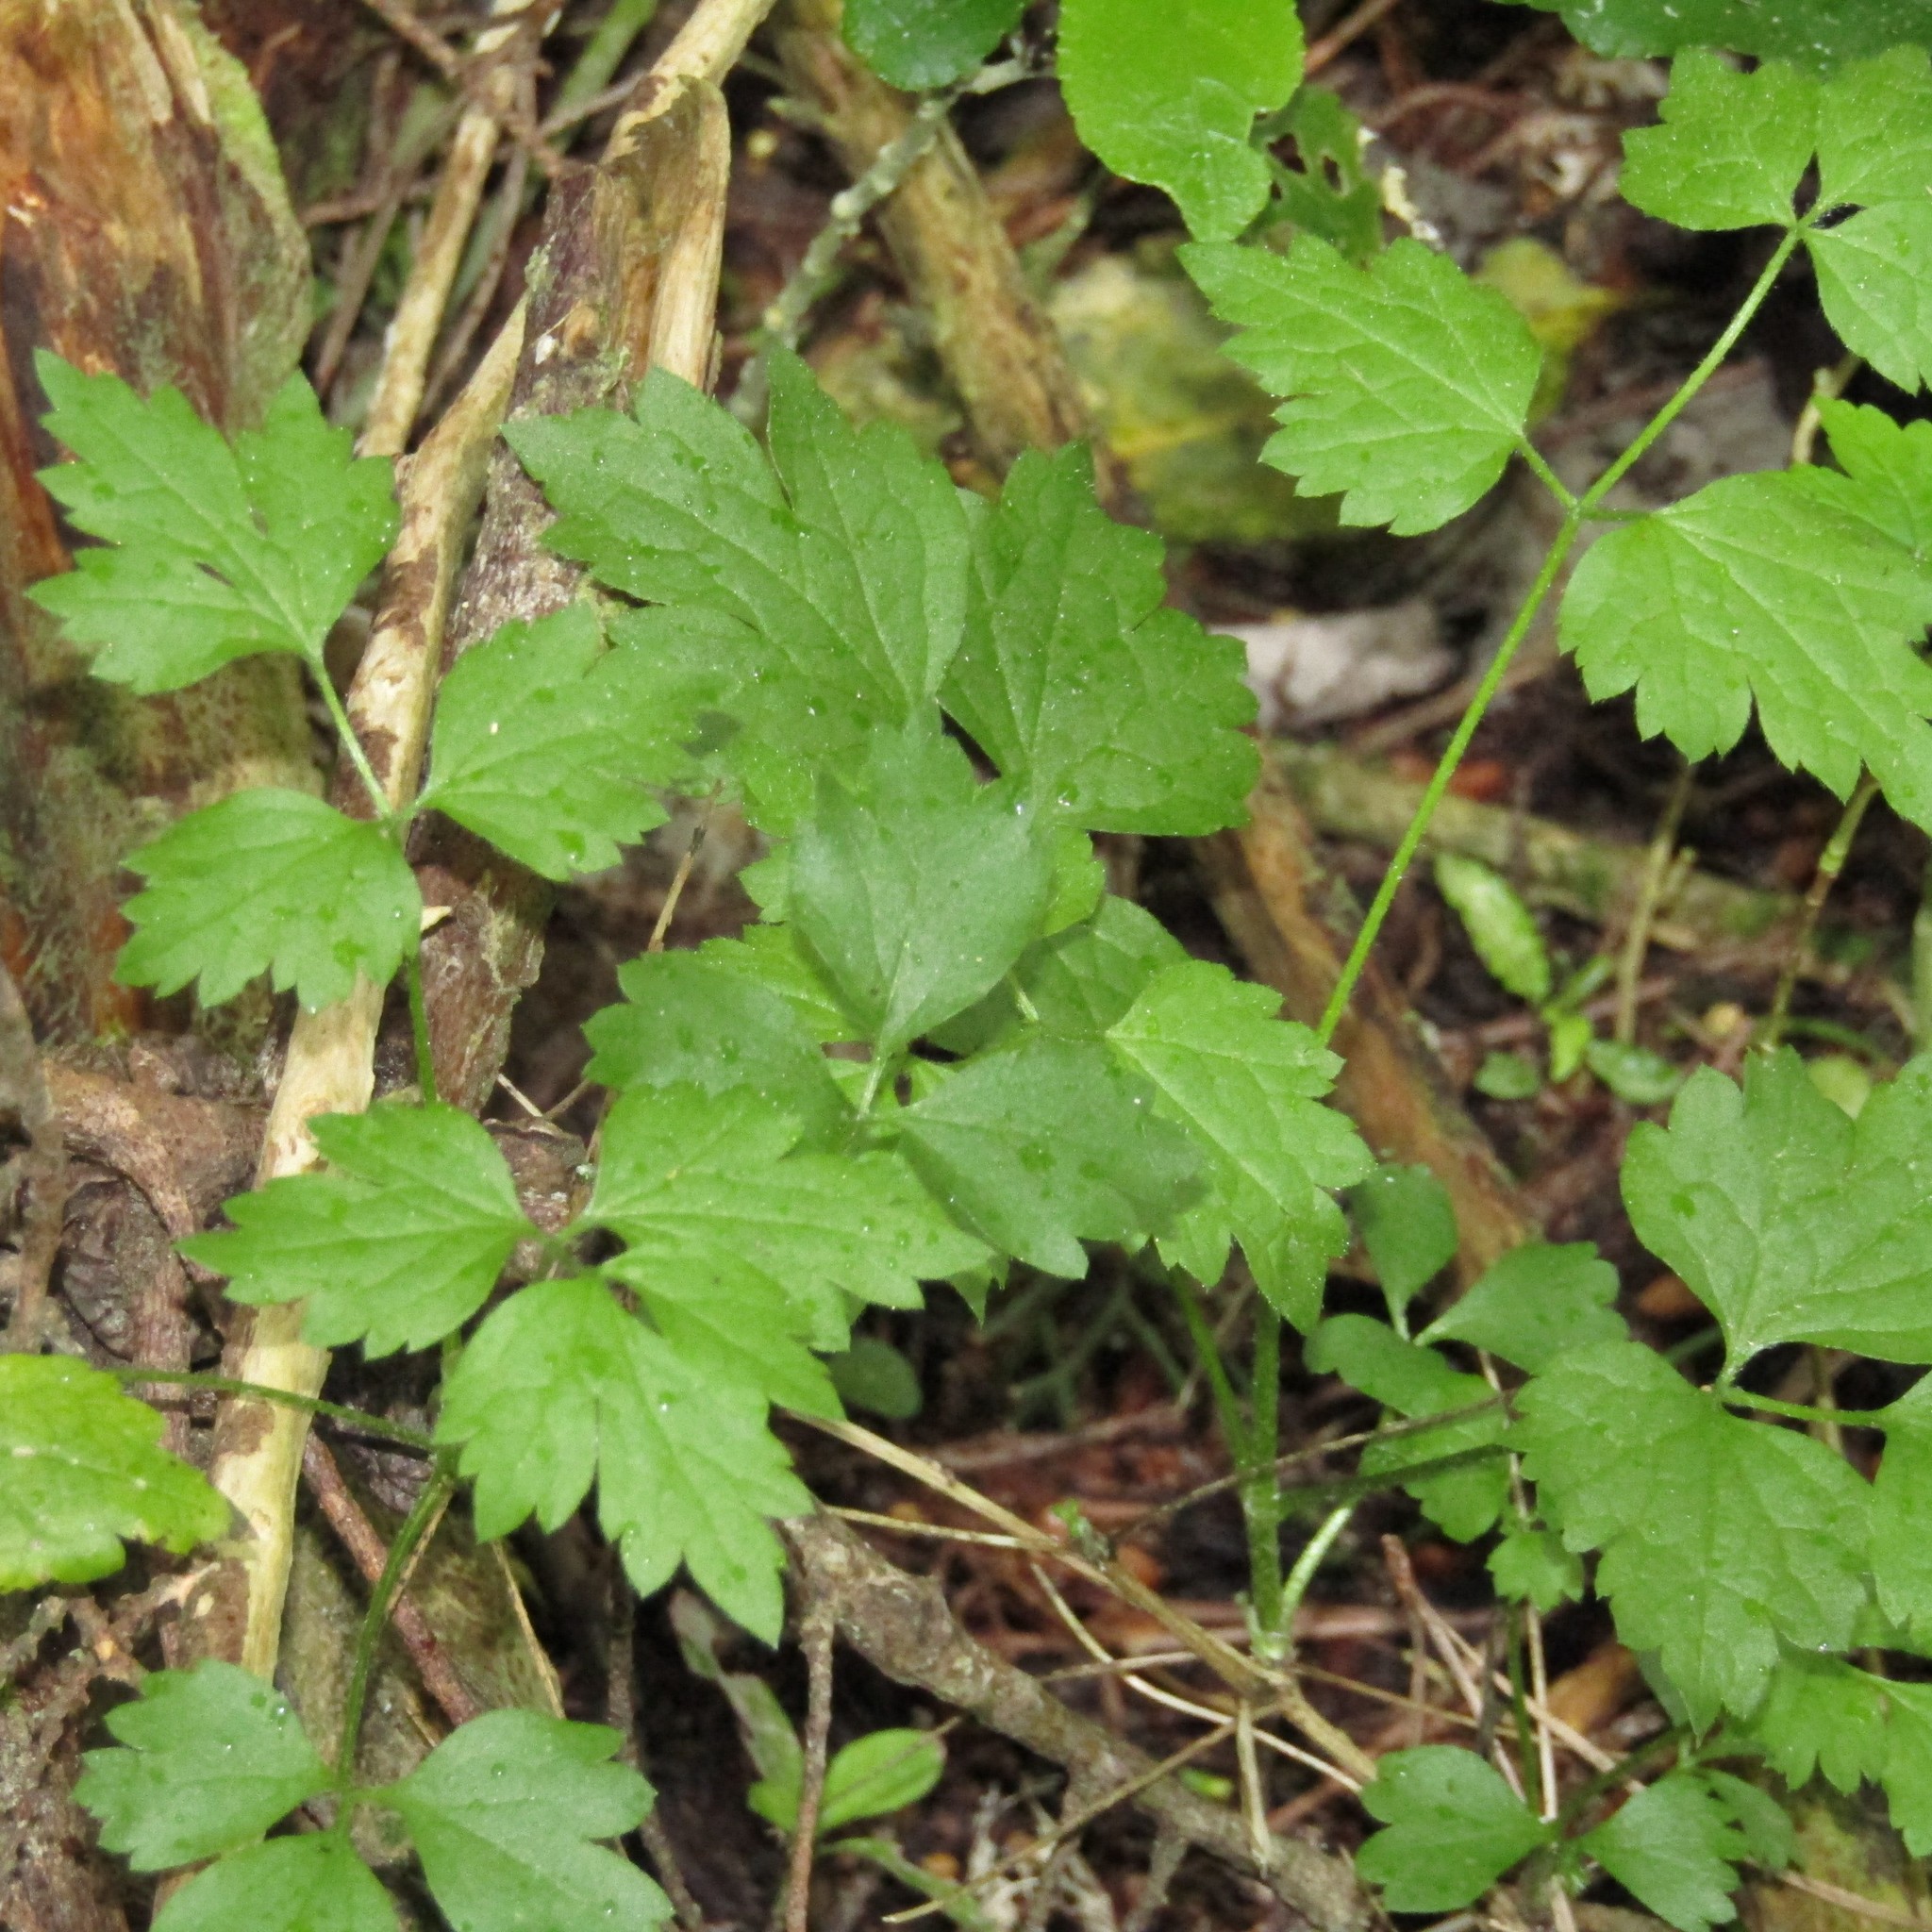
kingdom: Plantae
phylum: Tracheophyta
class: Magnoliopsida
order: Ranunculales
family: Ranunculaceae
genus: Clematis
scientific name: Clematis vitalba
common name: Evergreen clematis
